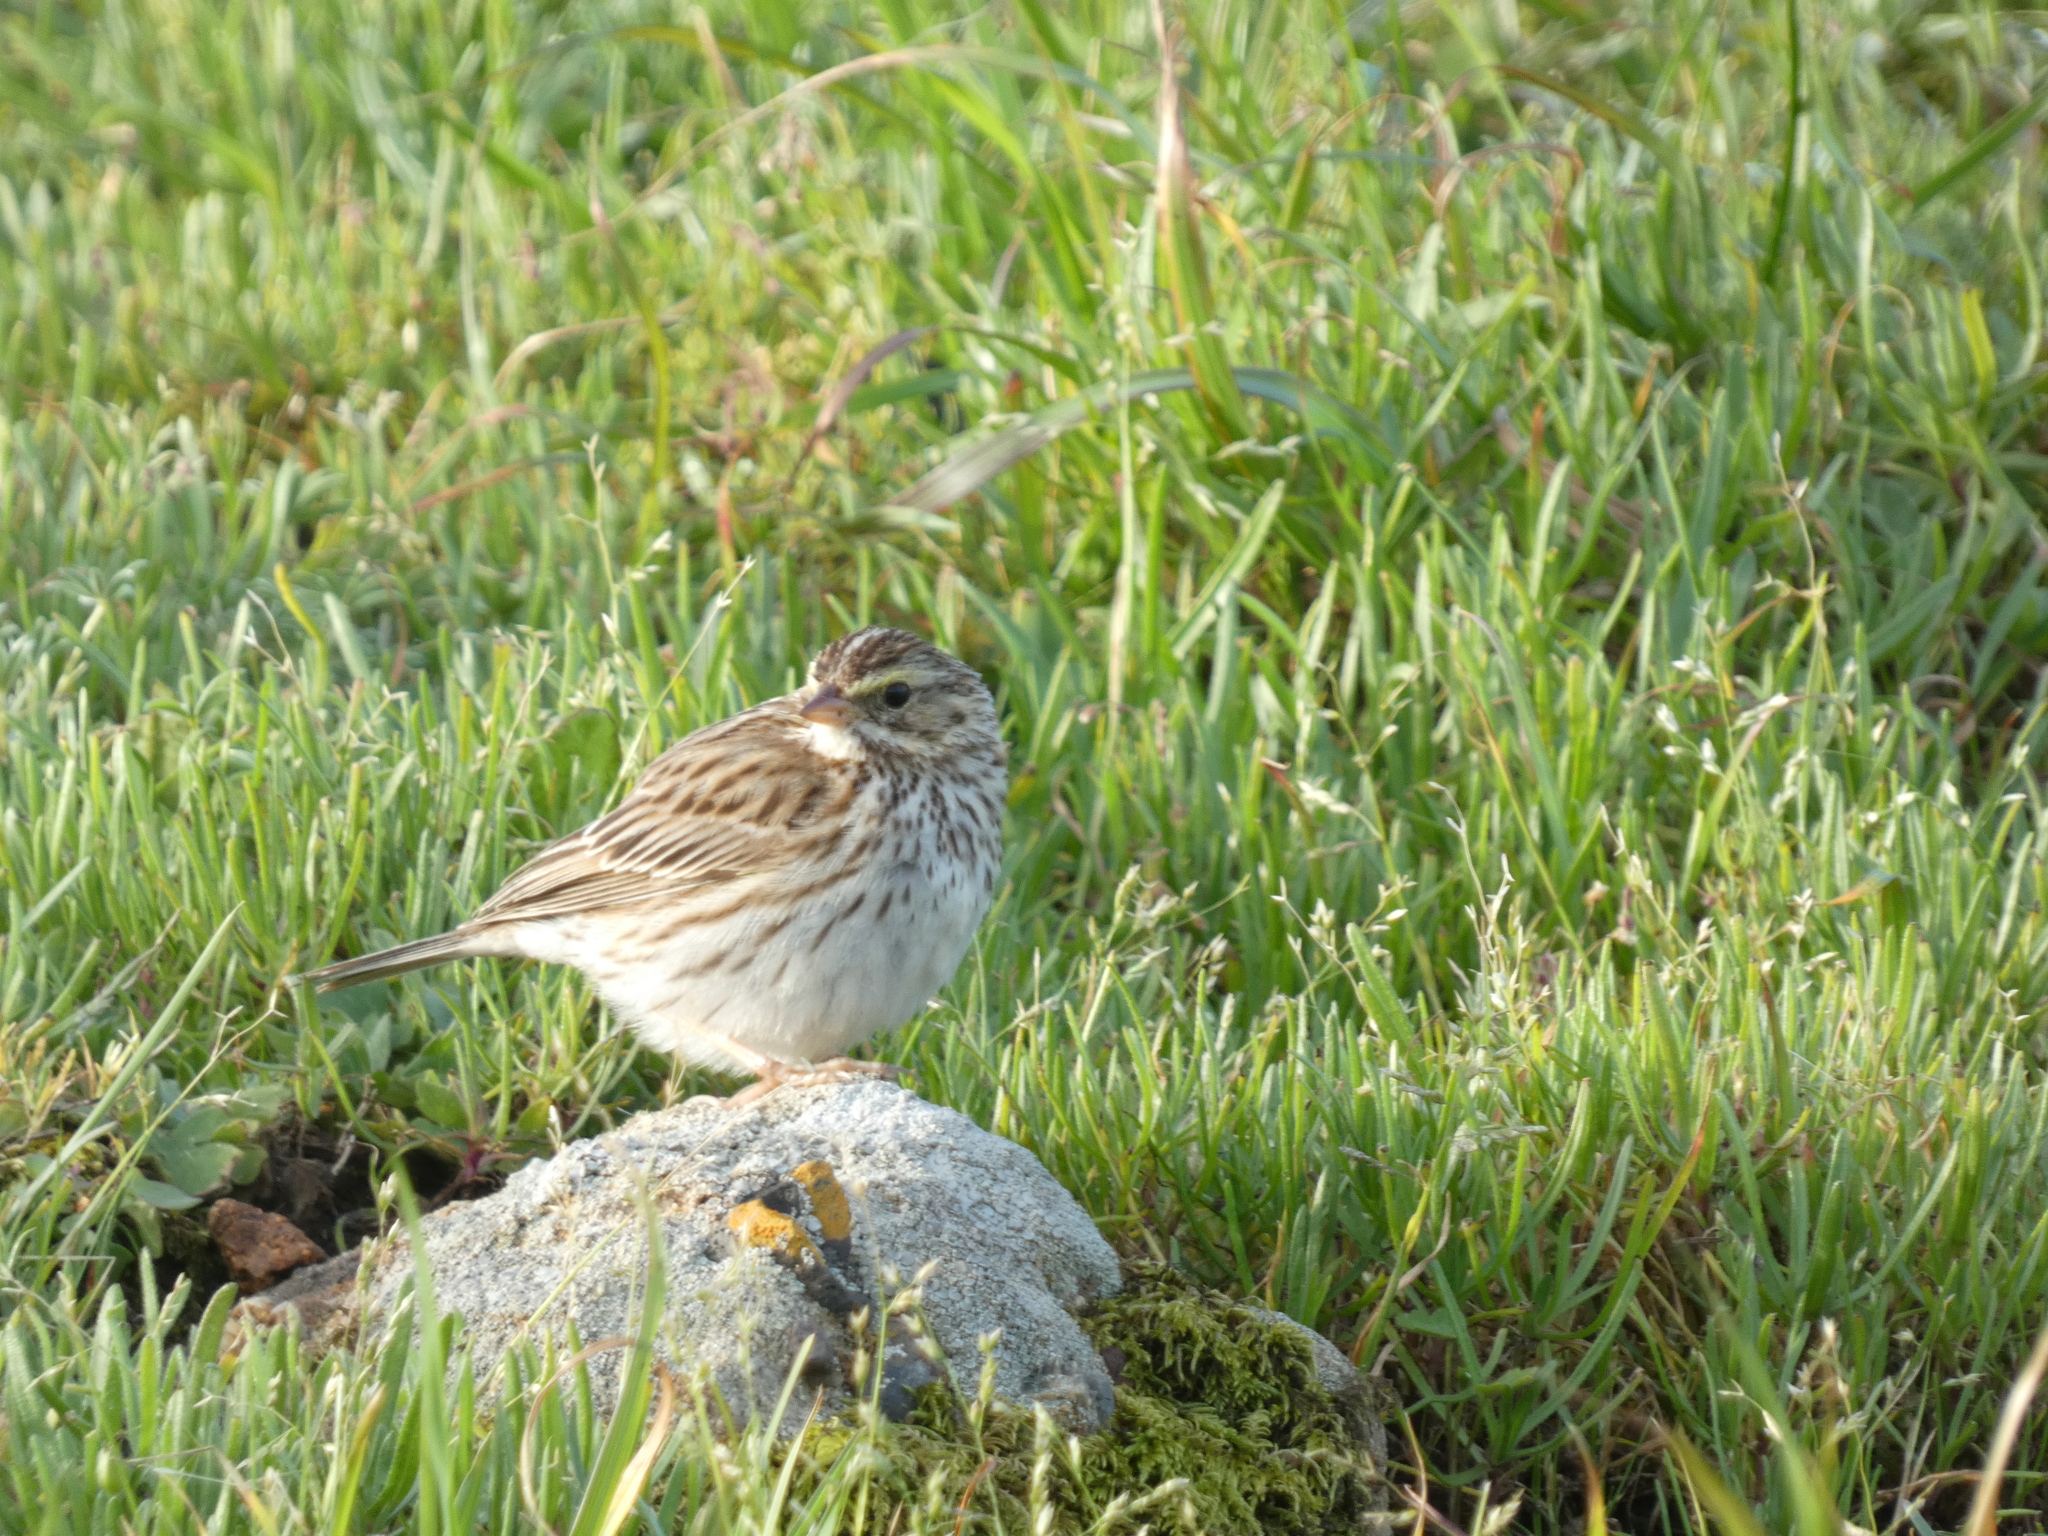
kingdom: Animalia
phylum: Chordata
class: Aves
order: Passeriformes
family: Passerellidae
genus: Passerculus
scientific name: Passerculus sandwichensis
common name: Savannah sparrow
